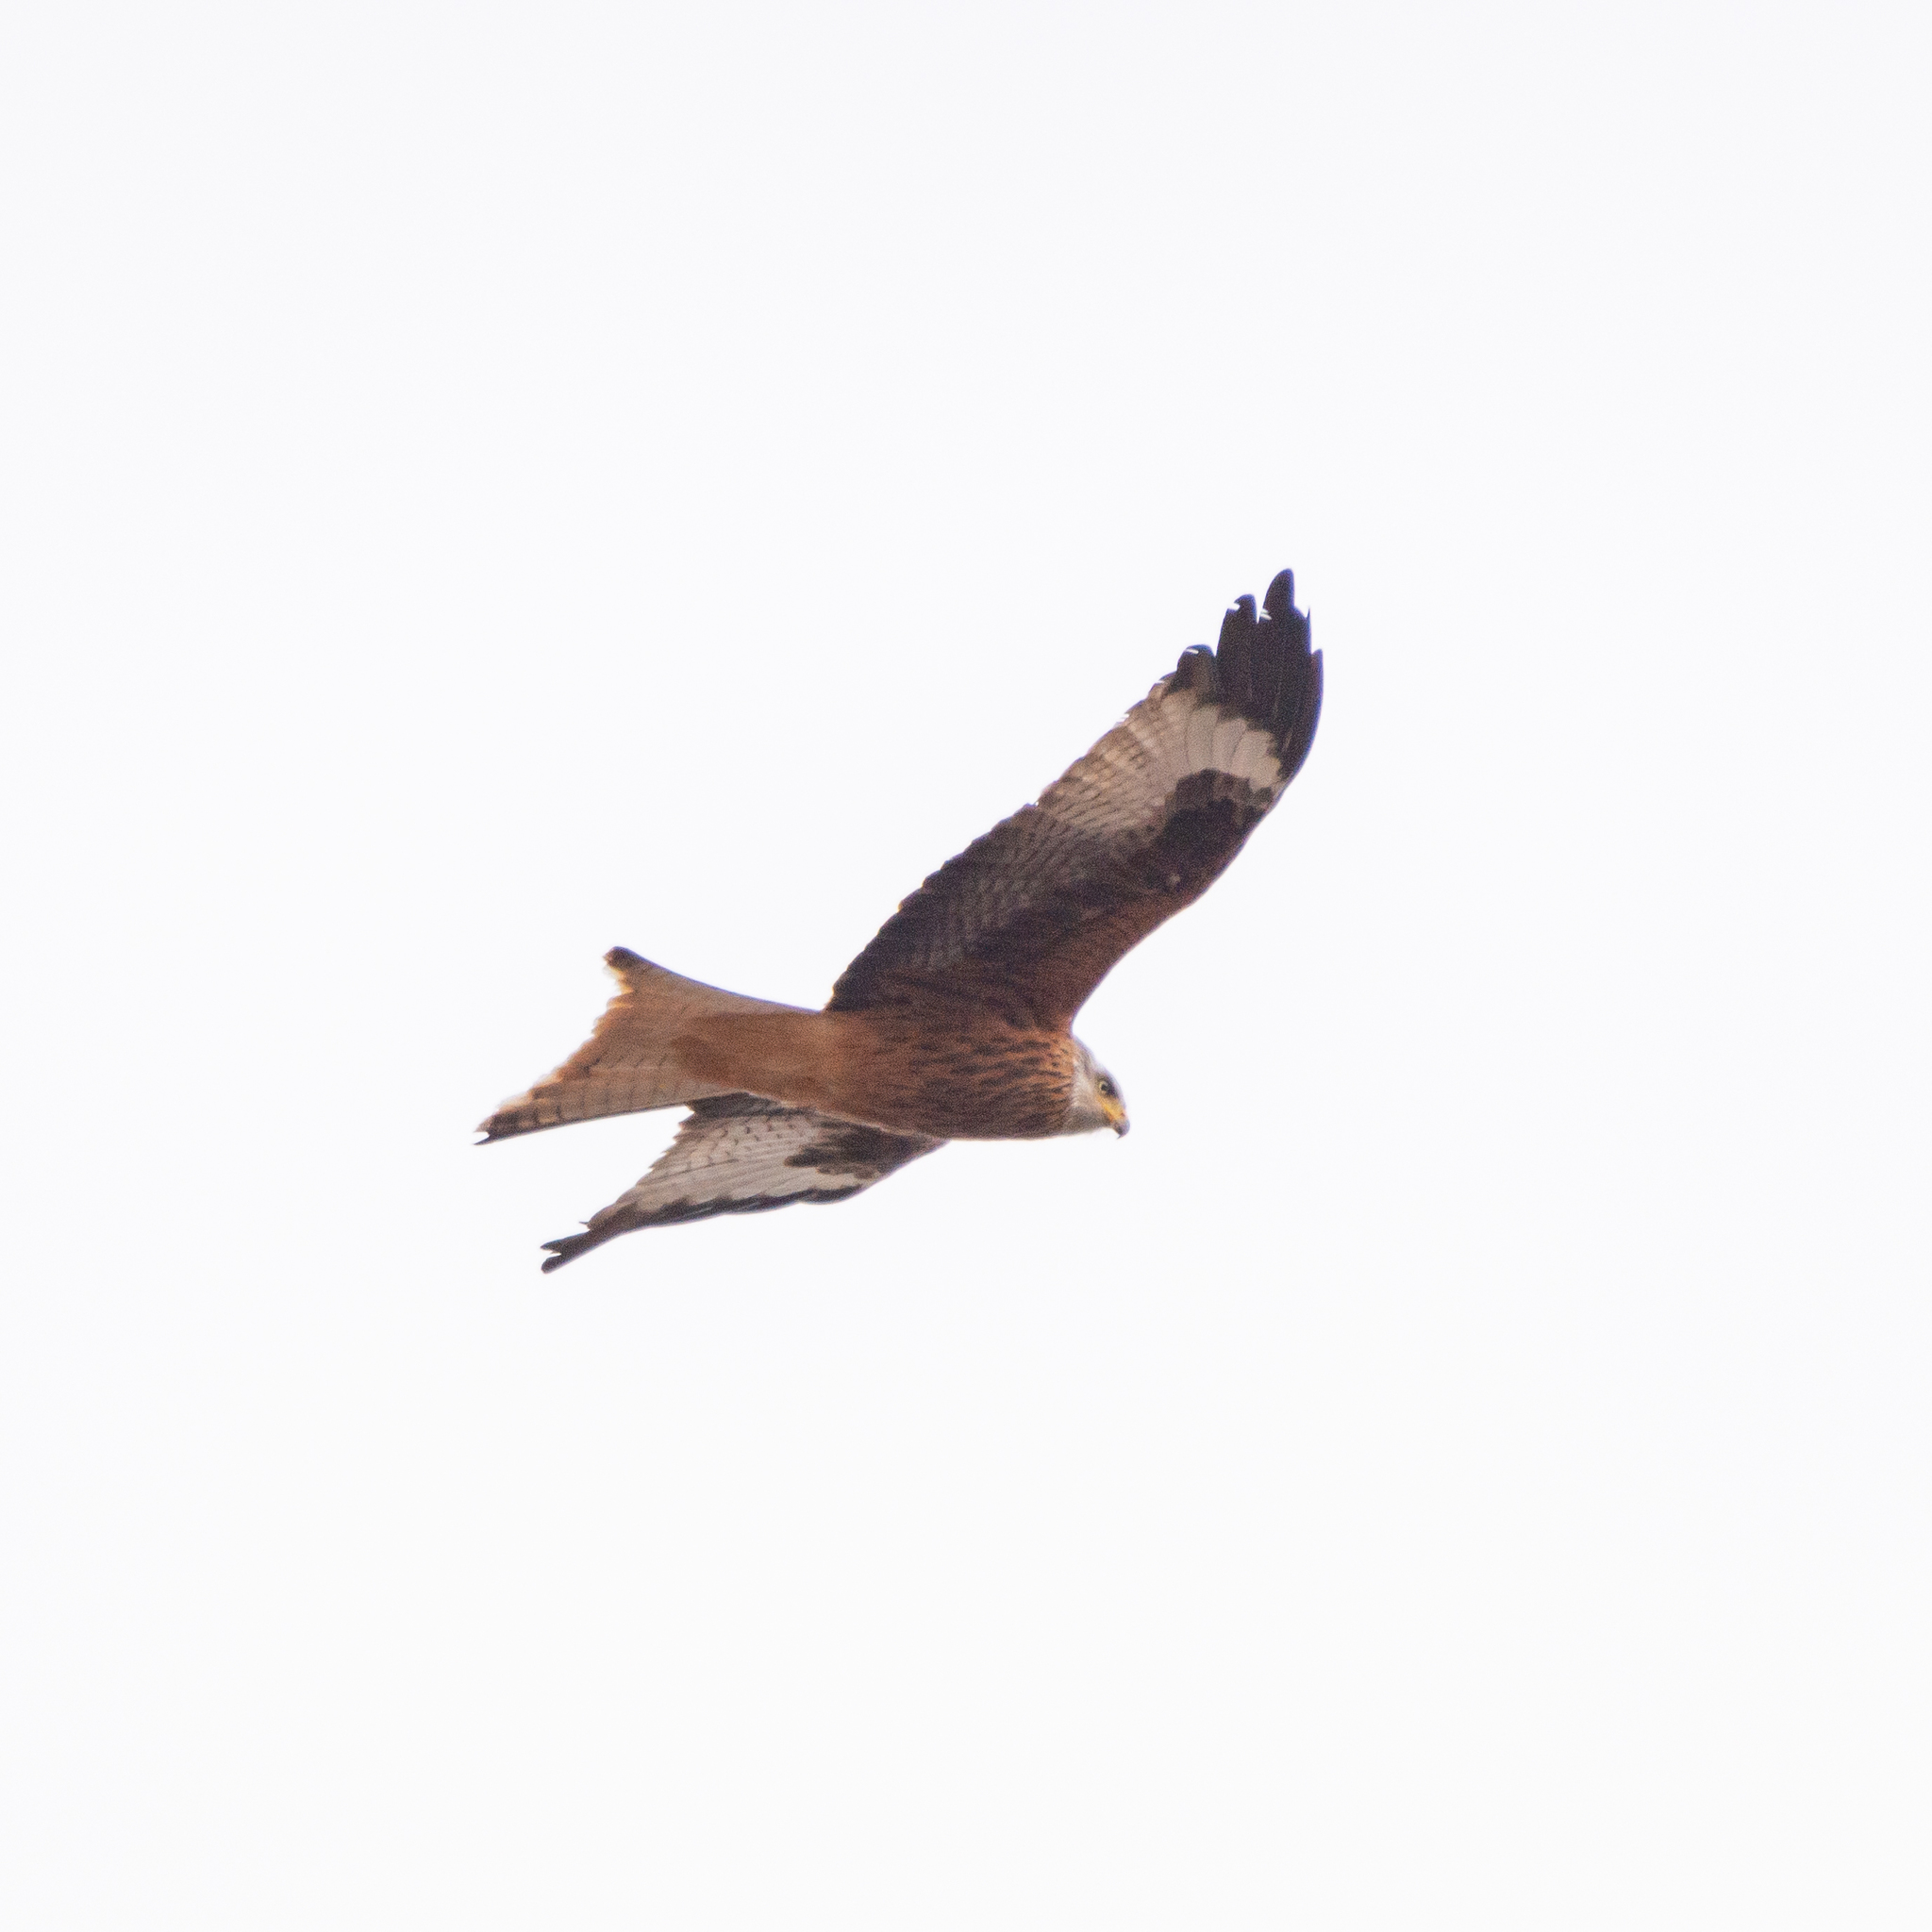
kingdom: Animalia
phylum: Chordata
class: Aves
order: Accipitriformes
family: Accipitridae
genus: Milvus
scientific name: Milvus milvus
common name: Red kite
